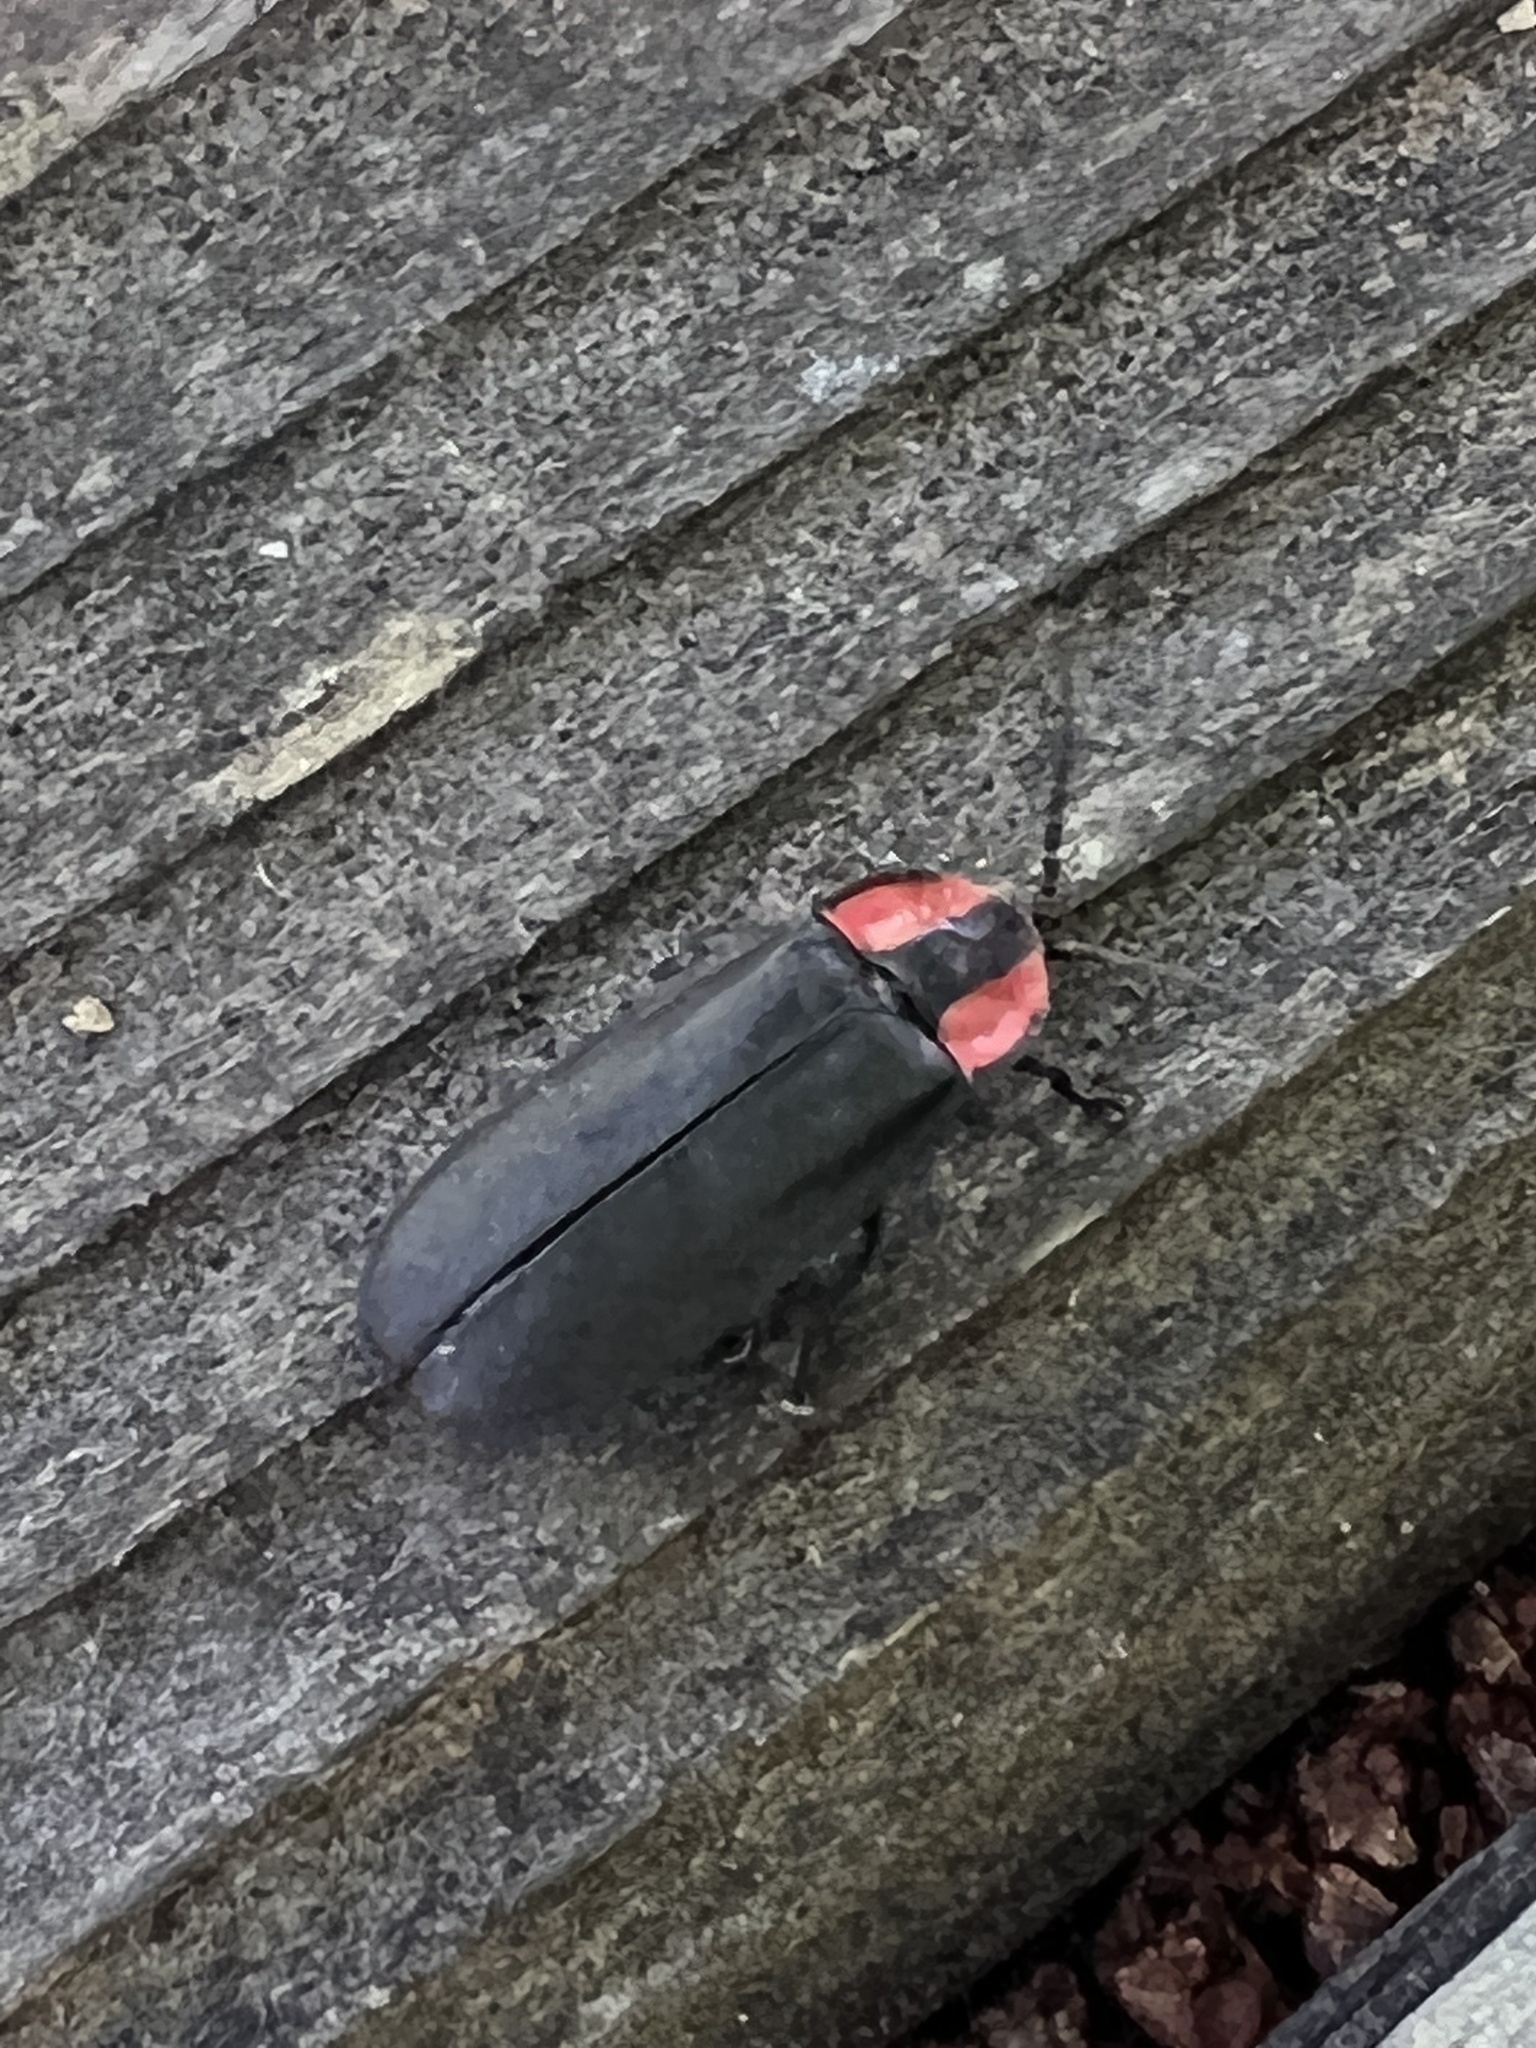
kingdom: Animalia
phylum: Arthropoda
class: Insecta
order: Coleoptera
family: Lampyridae
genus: Ellychnia
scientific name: Ellychnia megista
